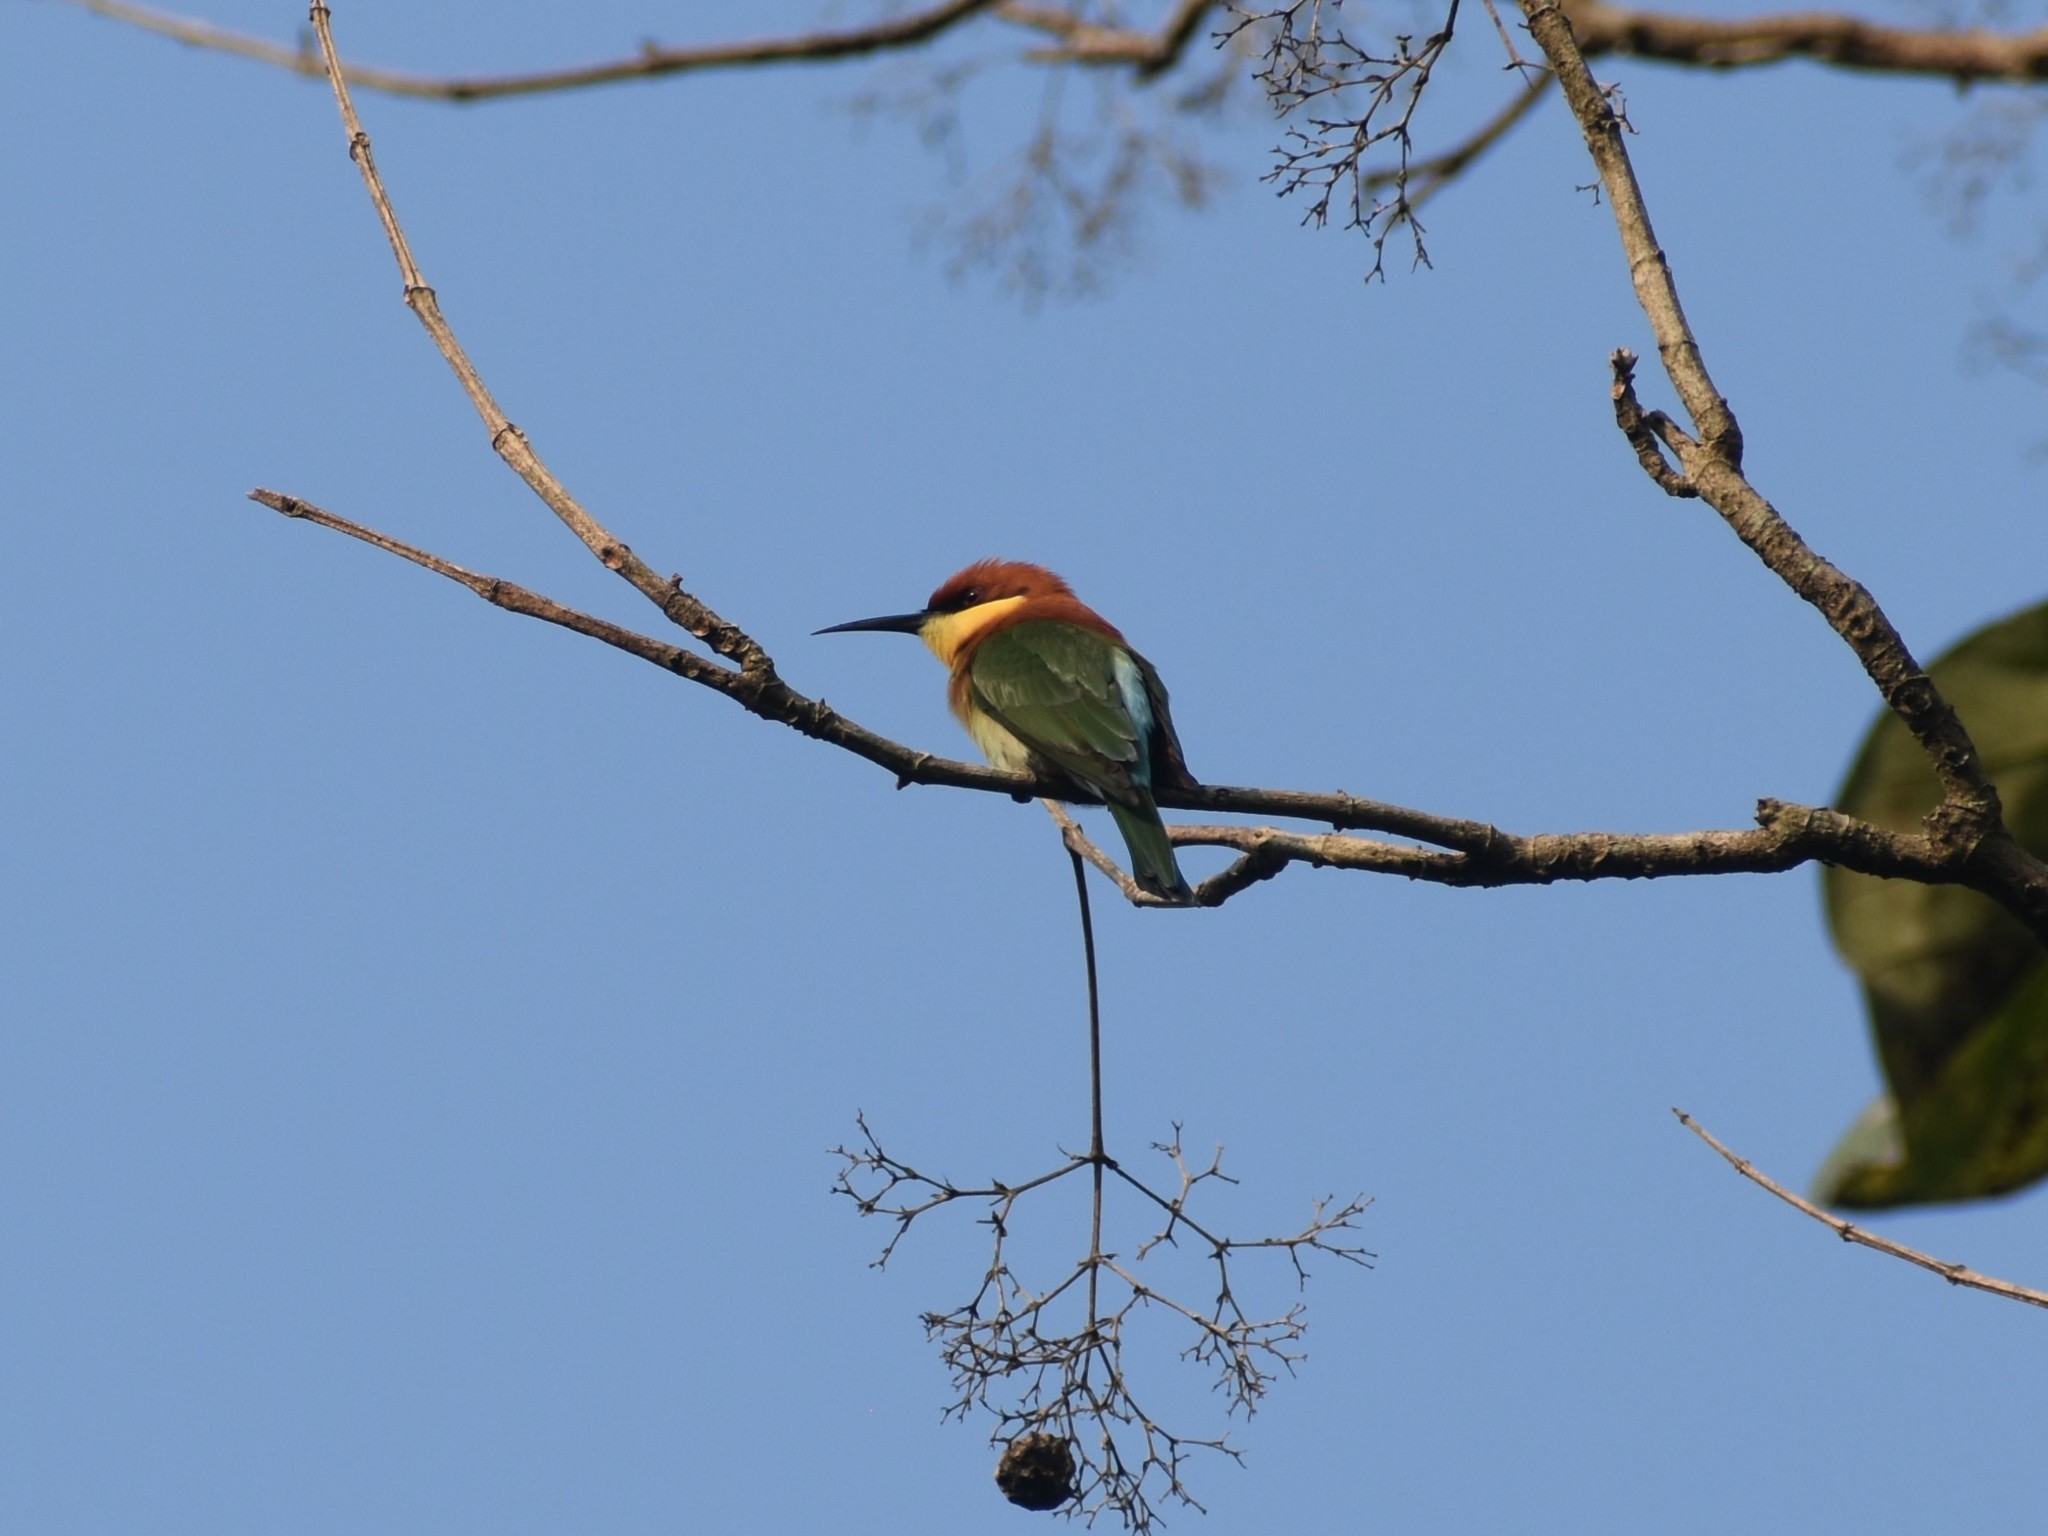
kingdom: Animalia
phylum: Chordata
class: Aves
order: Coraciiformes
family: Meropidae
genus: Merops
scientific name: Merops leschenaulti
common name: Chestnut-headed bee-eater
